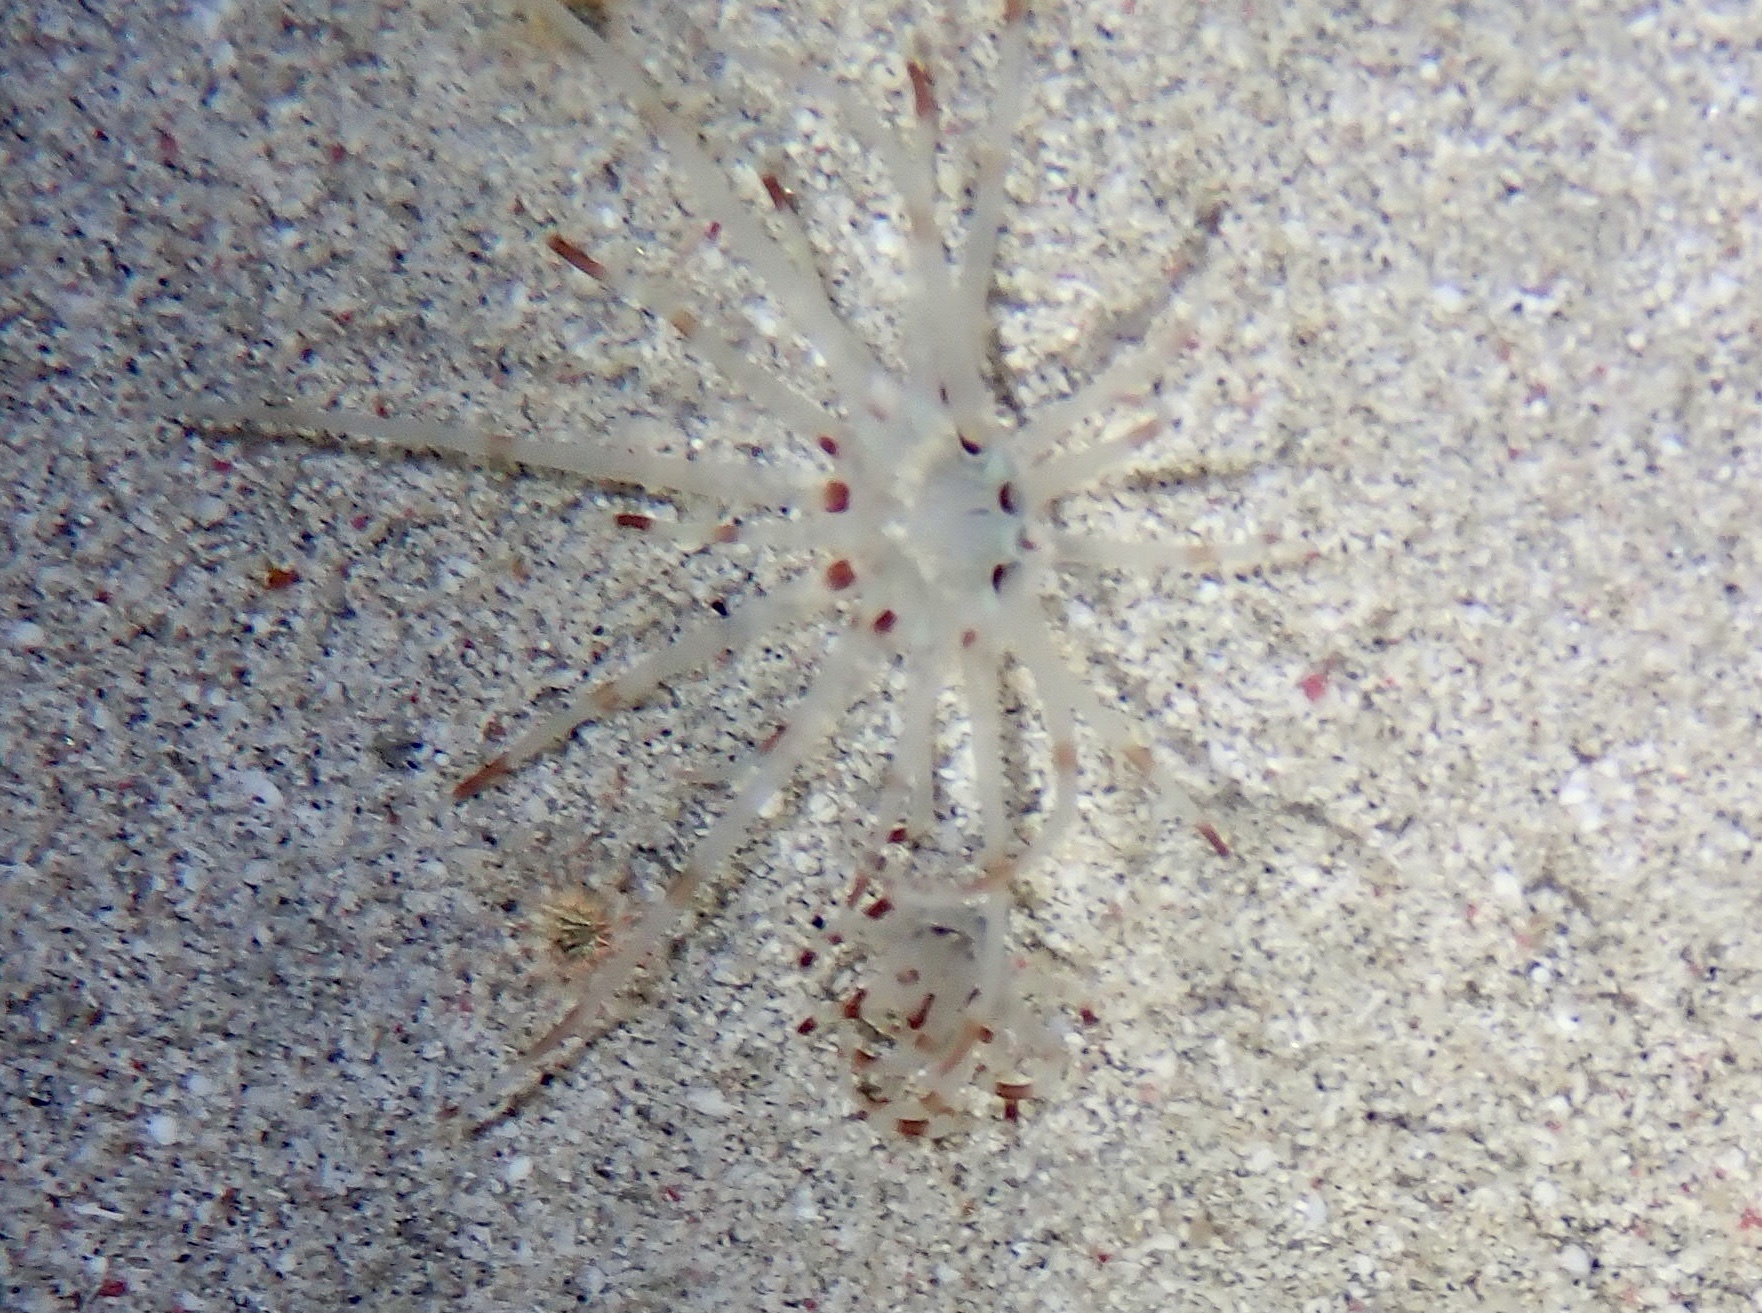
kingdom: Animalia
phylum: Cnidaria
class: Anthozoa
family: Arachnactidae
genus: Arachnanthus
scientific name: Arachnanthus lilith
